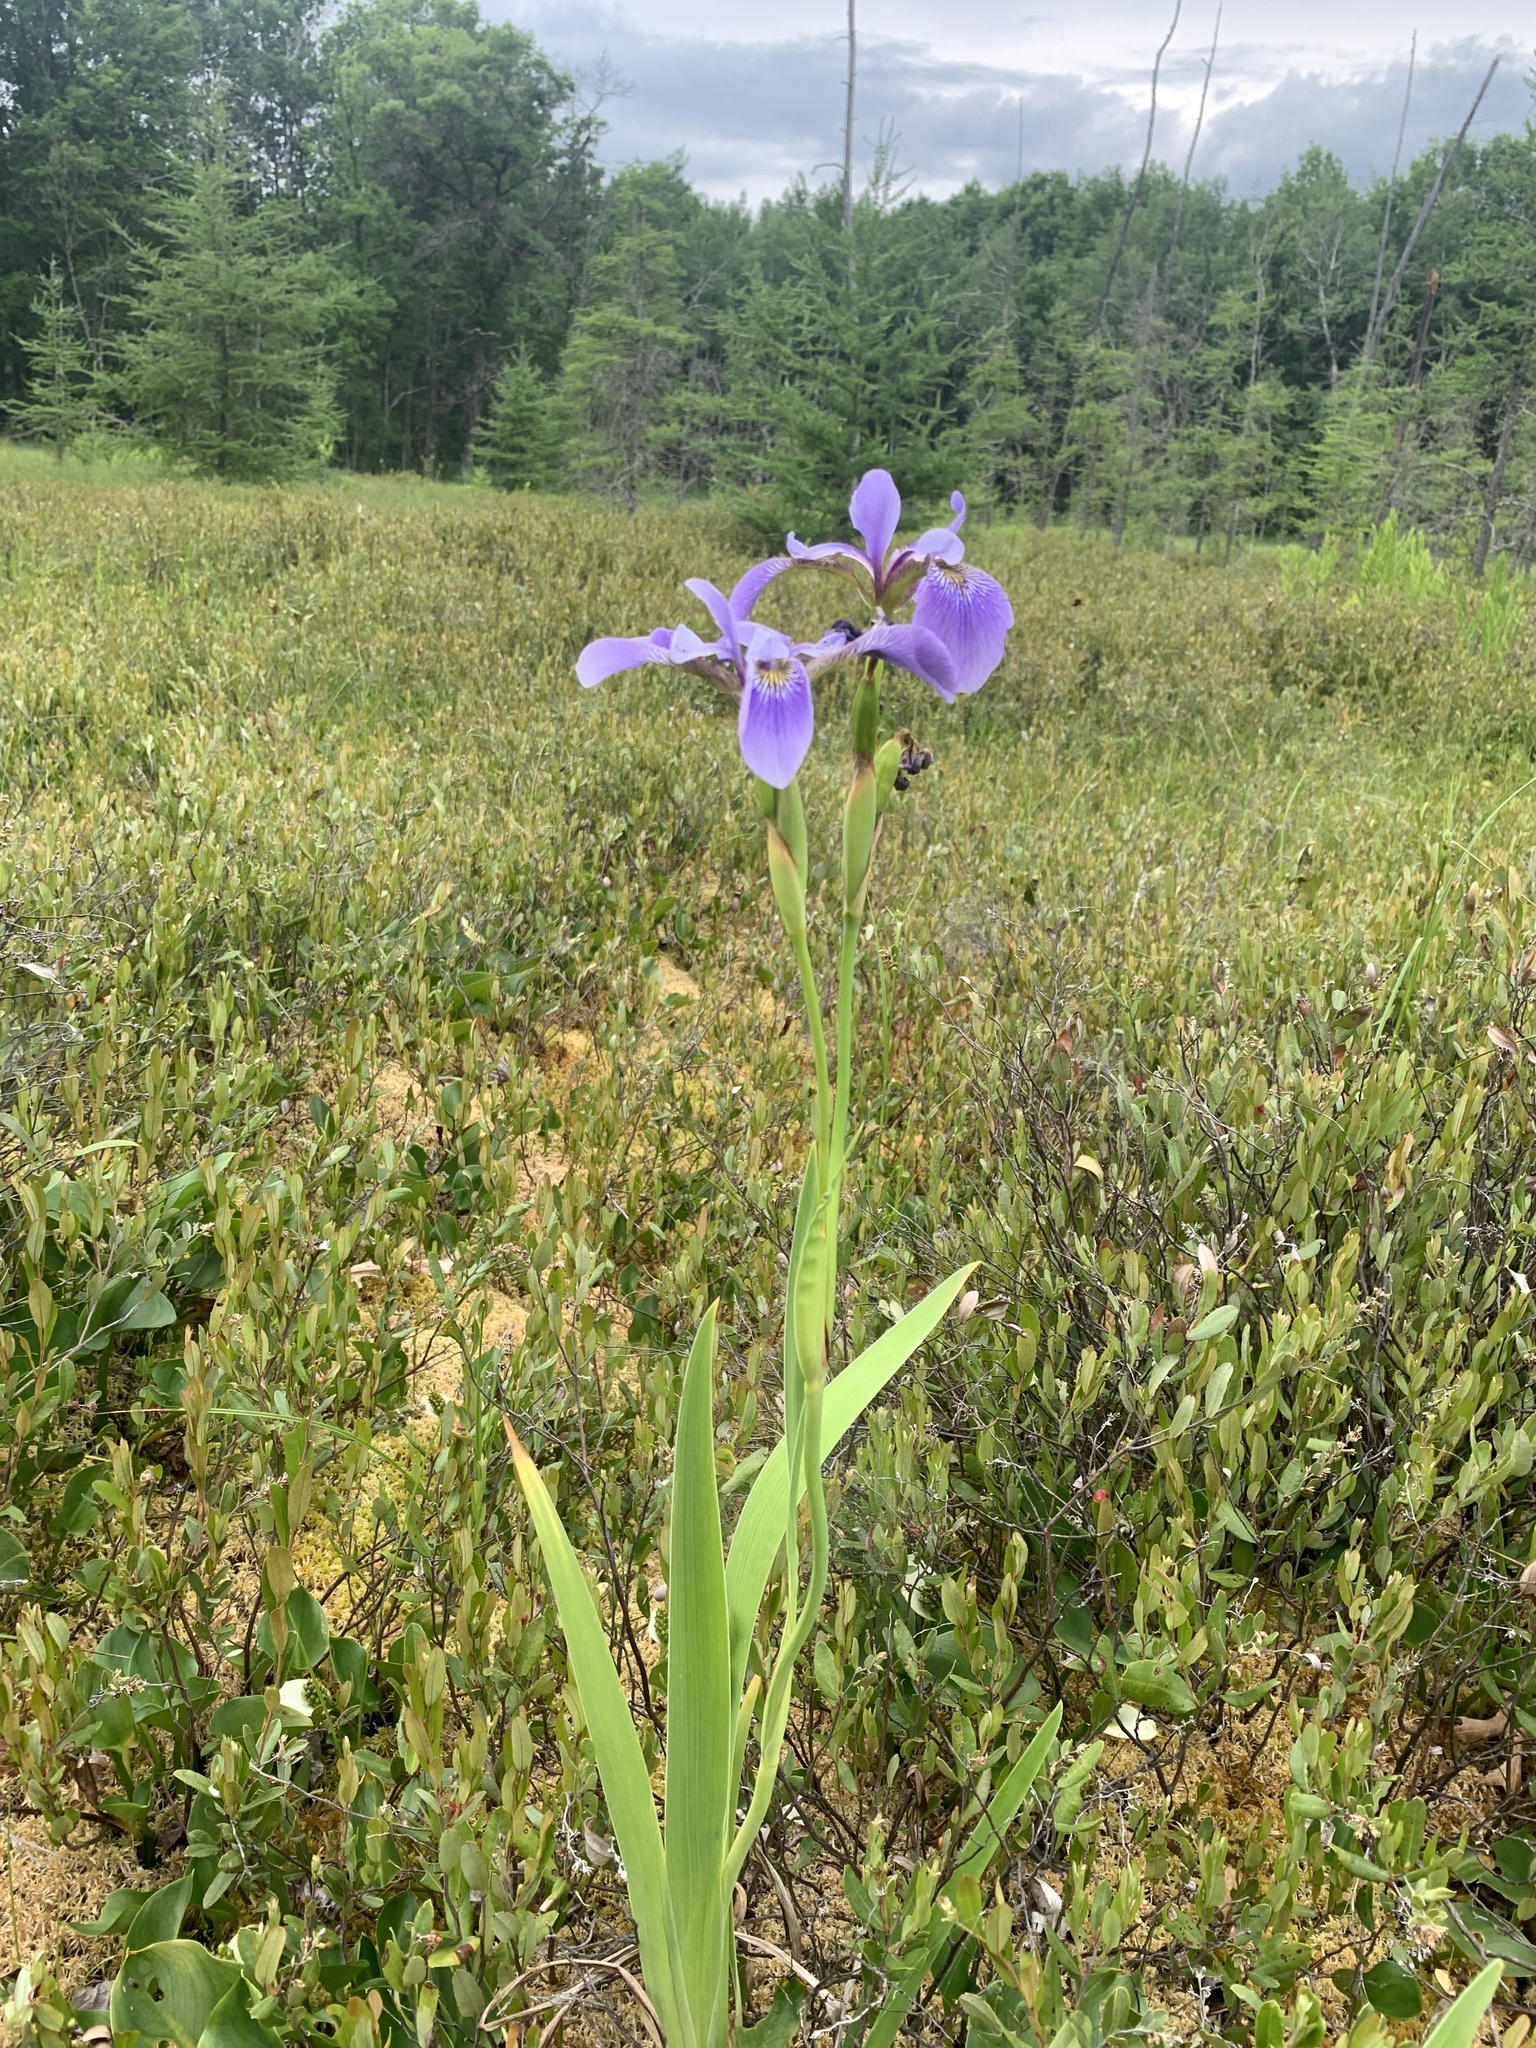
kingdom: Plantae
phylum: Tracheophyta
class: Liliopsida
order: Asparagales
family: Iridaceae
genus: Iris
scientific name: Iris versicolor
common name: Purple iris
